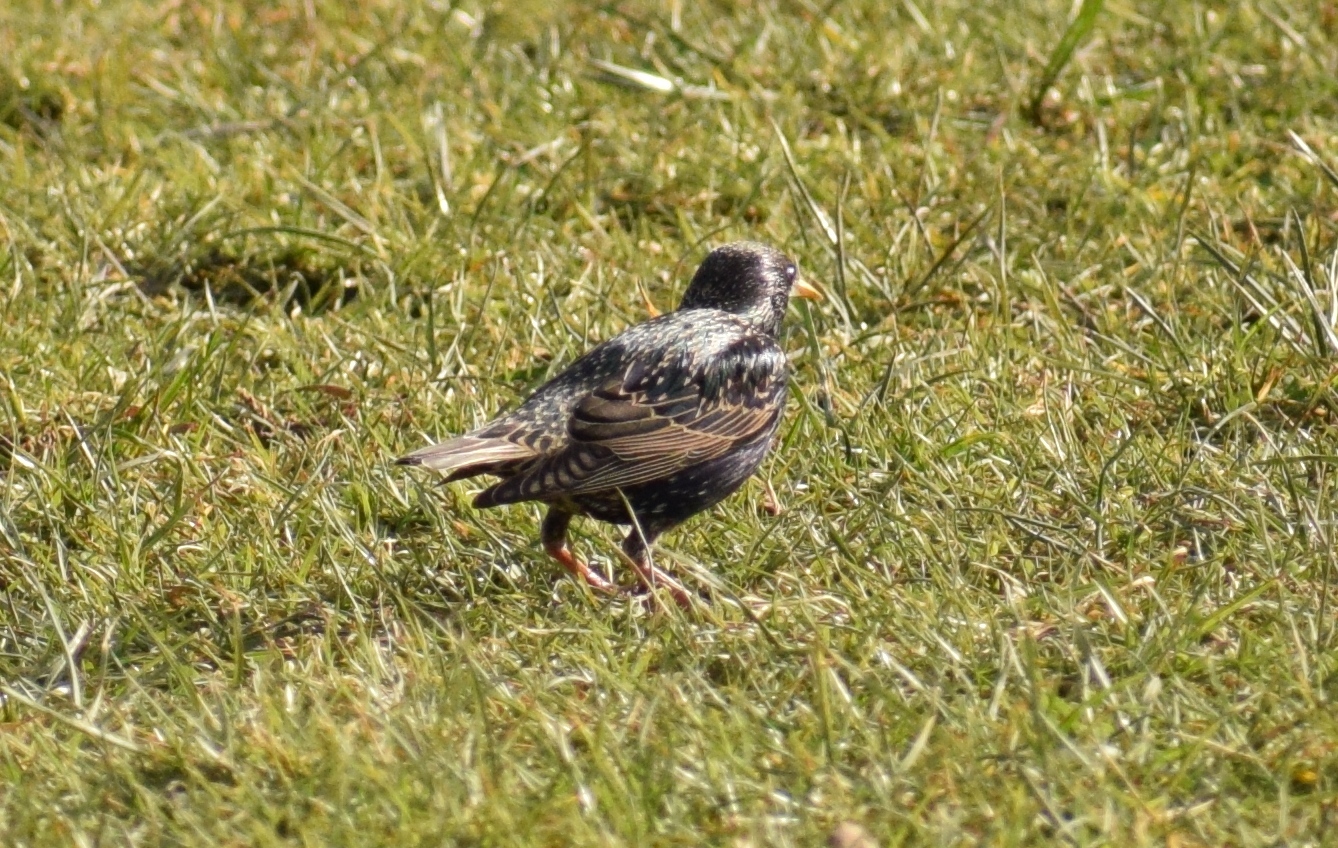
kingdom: Animalia
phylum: Chordata
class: Aves
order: Passeriformes
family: Sturnidae
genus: Sturnus
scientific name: Sturnus vulgaris
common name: Common starling
